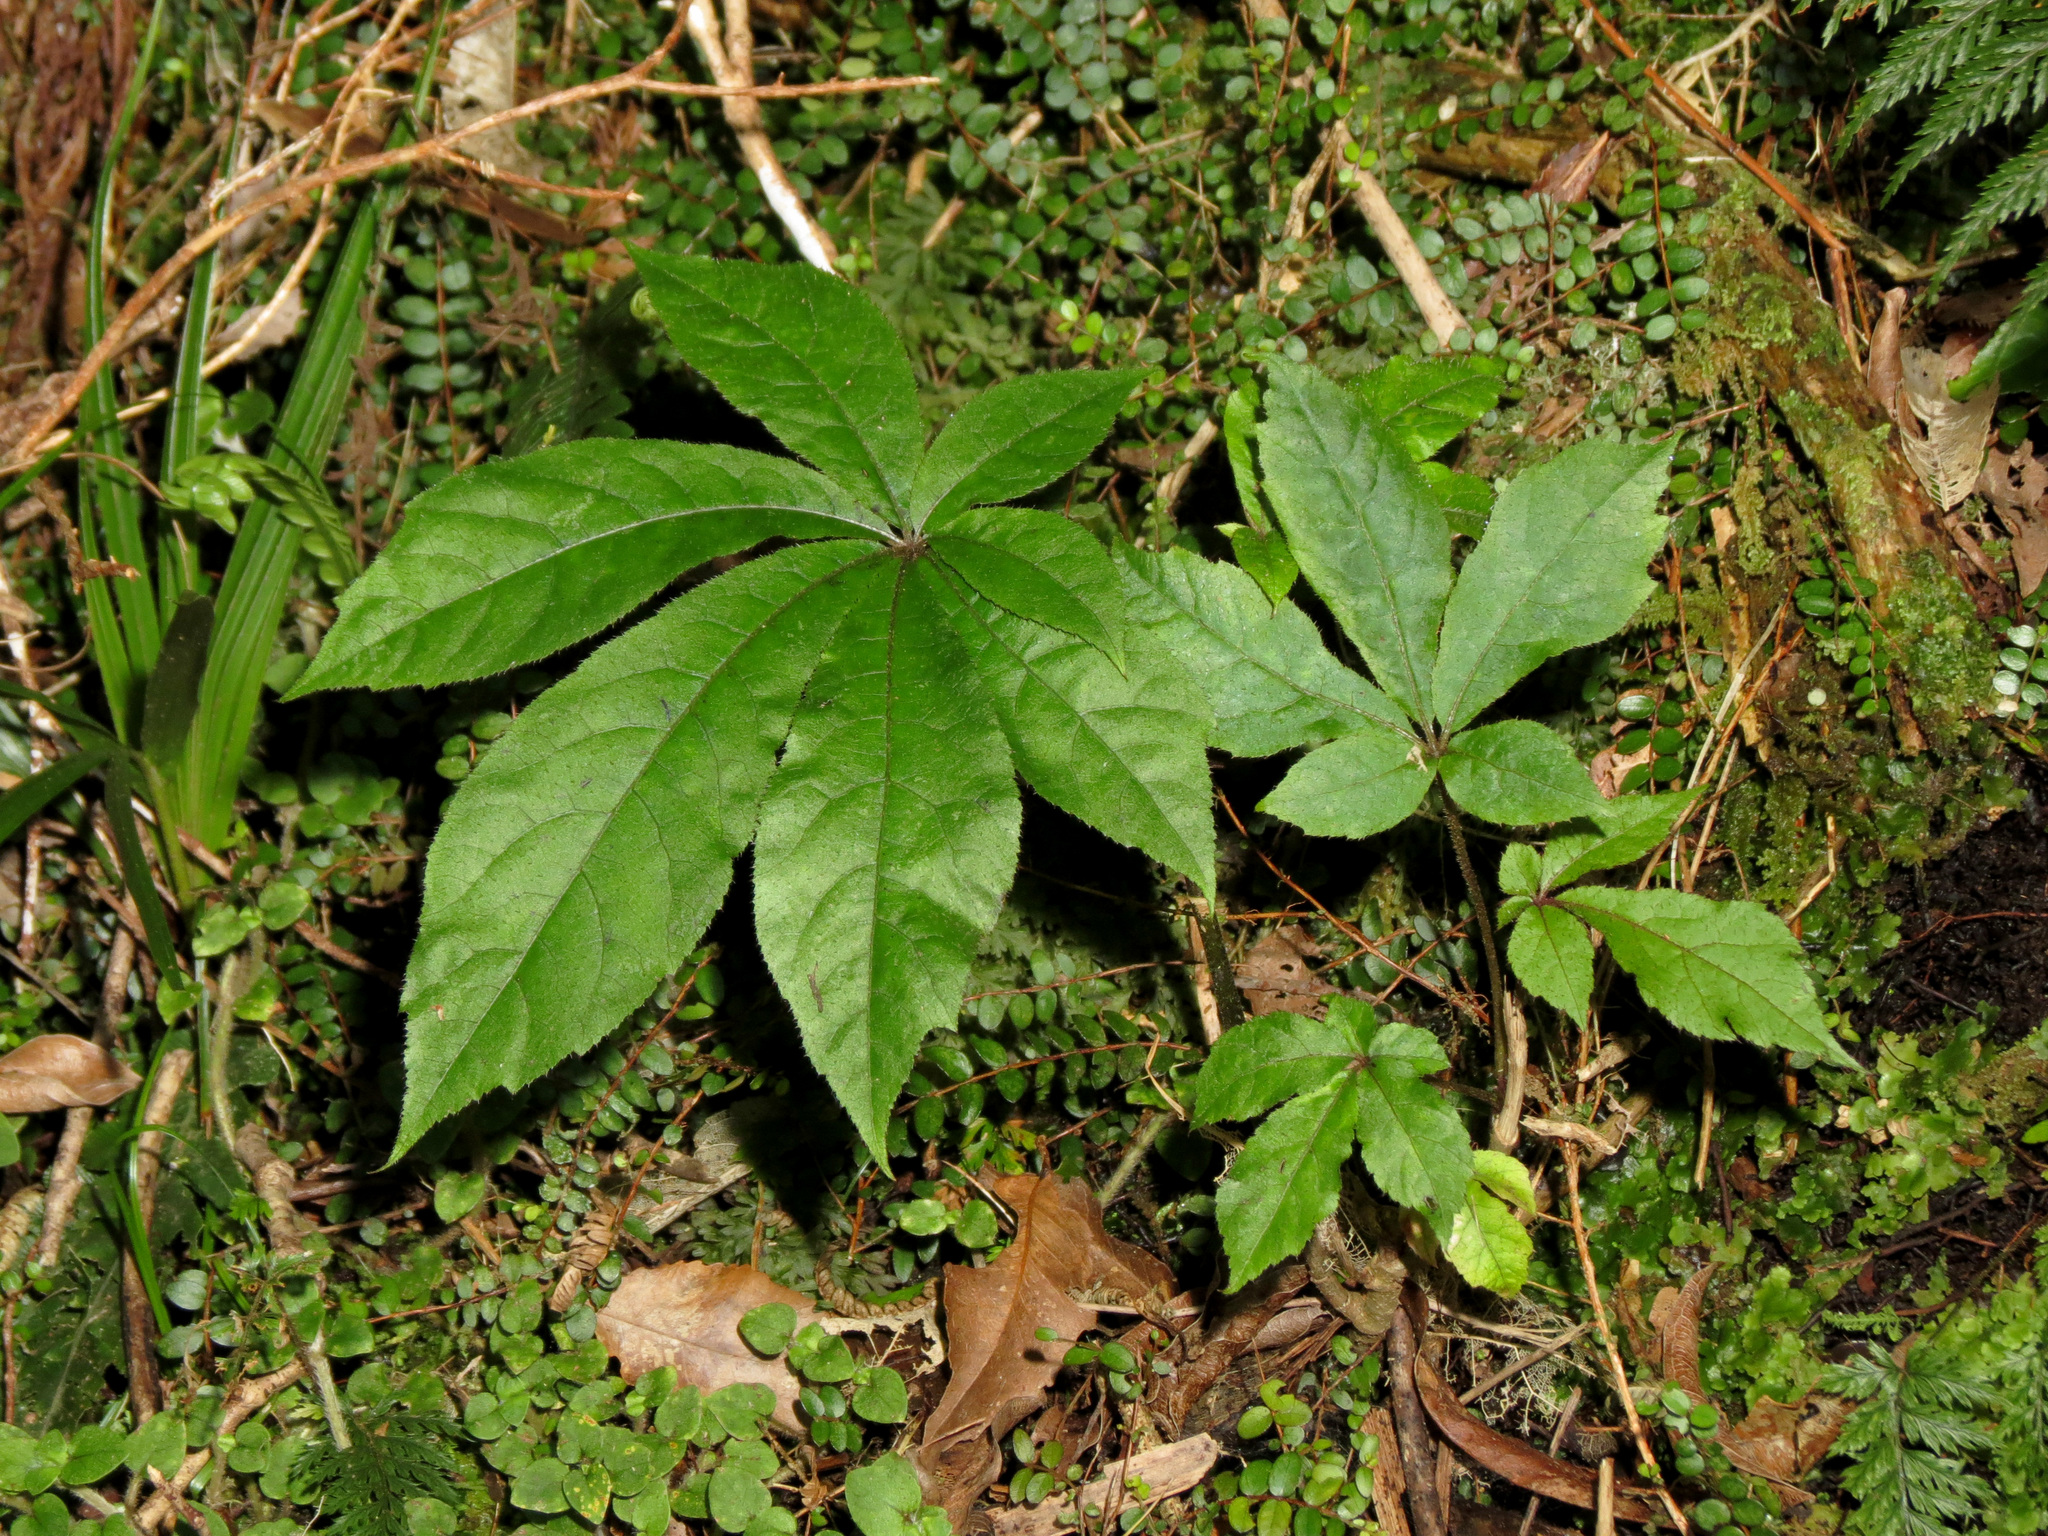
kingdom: Plantae
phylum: Tracheophyta
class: Magnoliopsida
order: Apiales
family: Araliaceae
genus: Schefflera
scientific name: Schefflera digitata
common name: Pate
